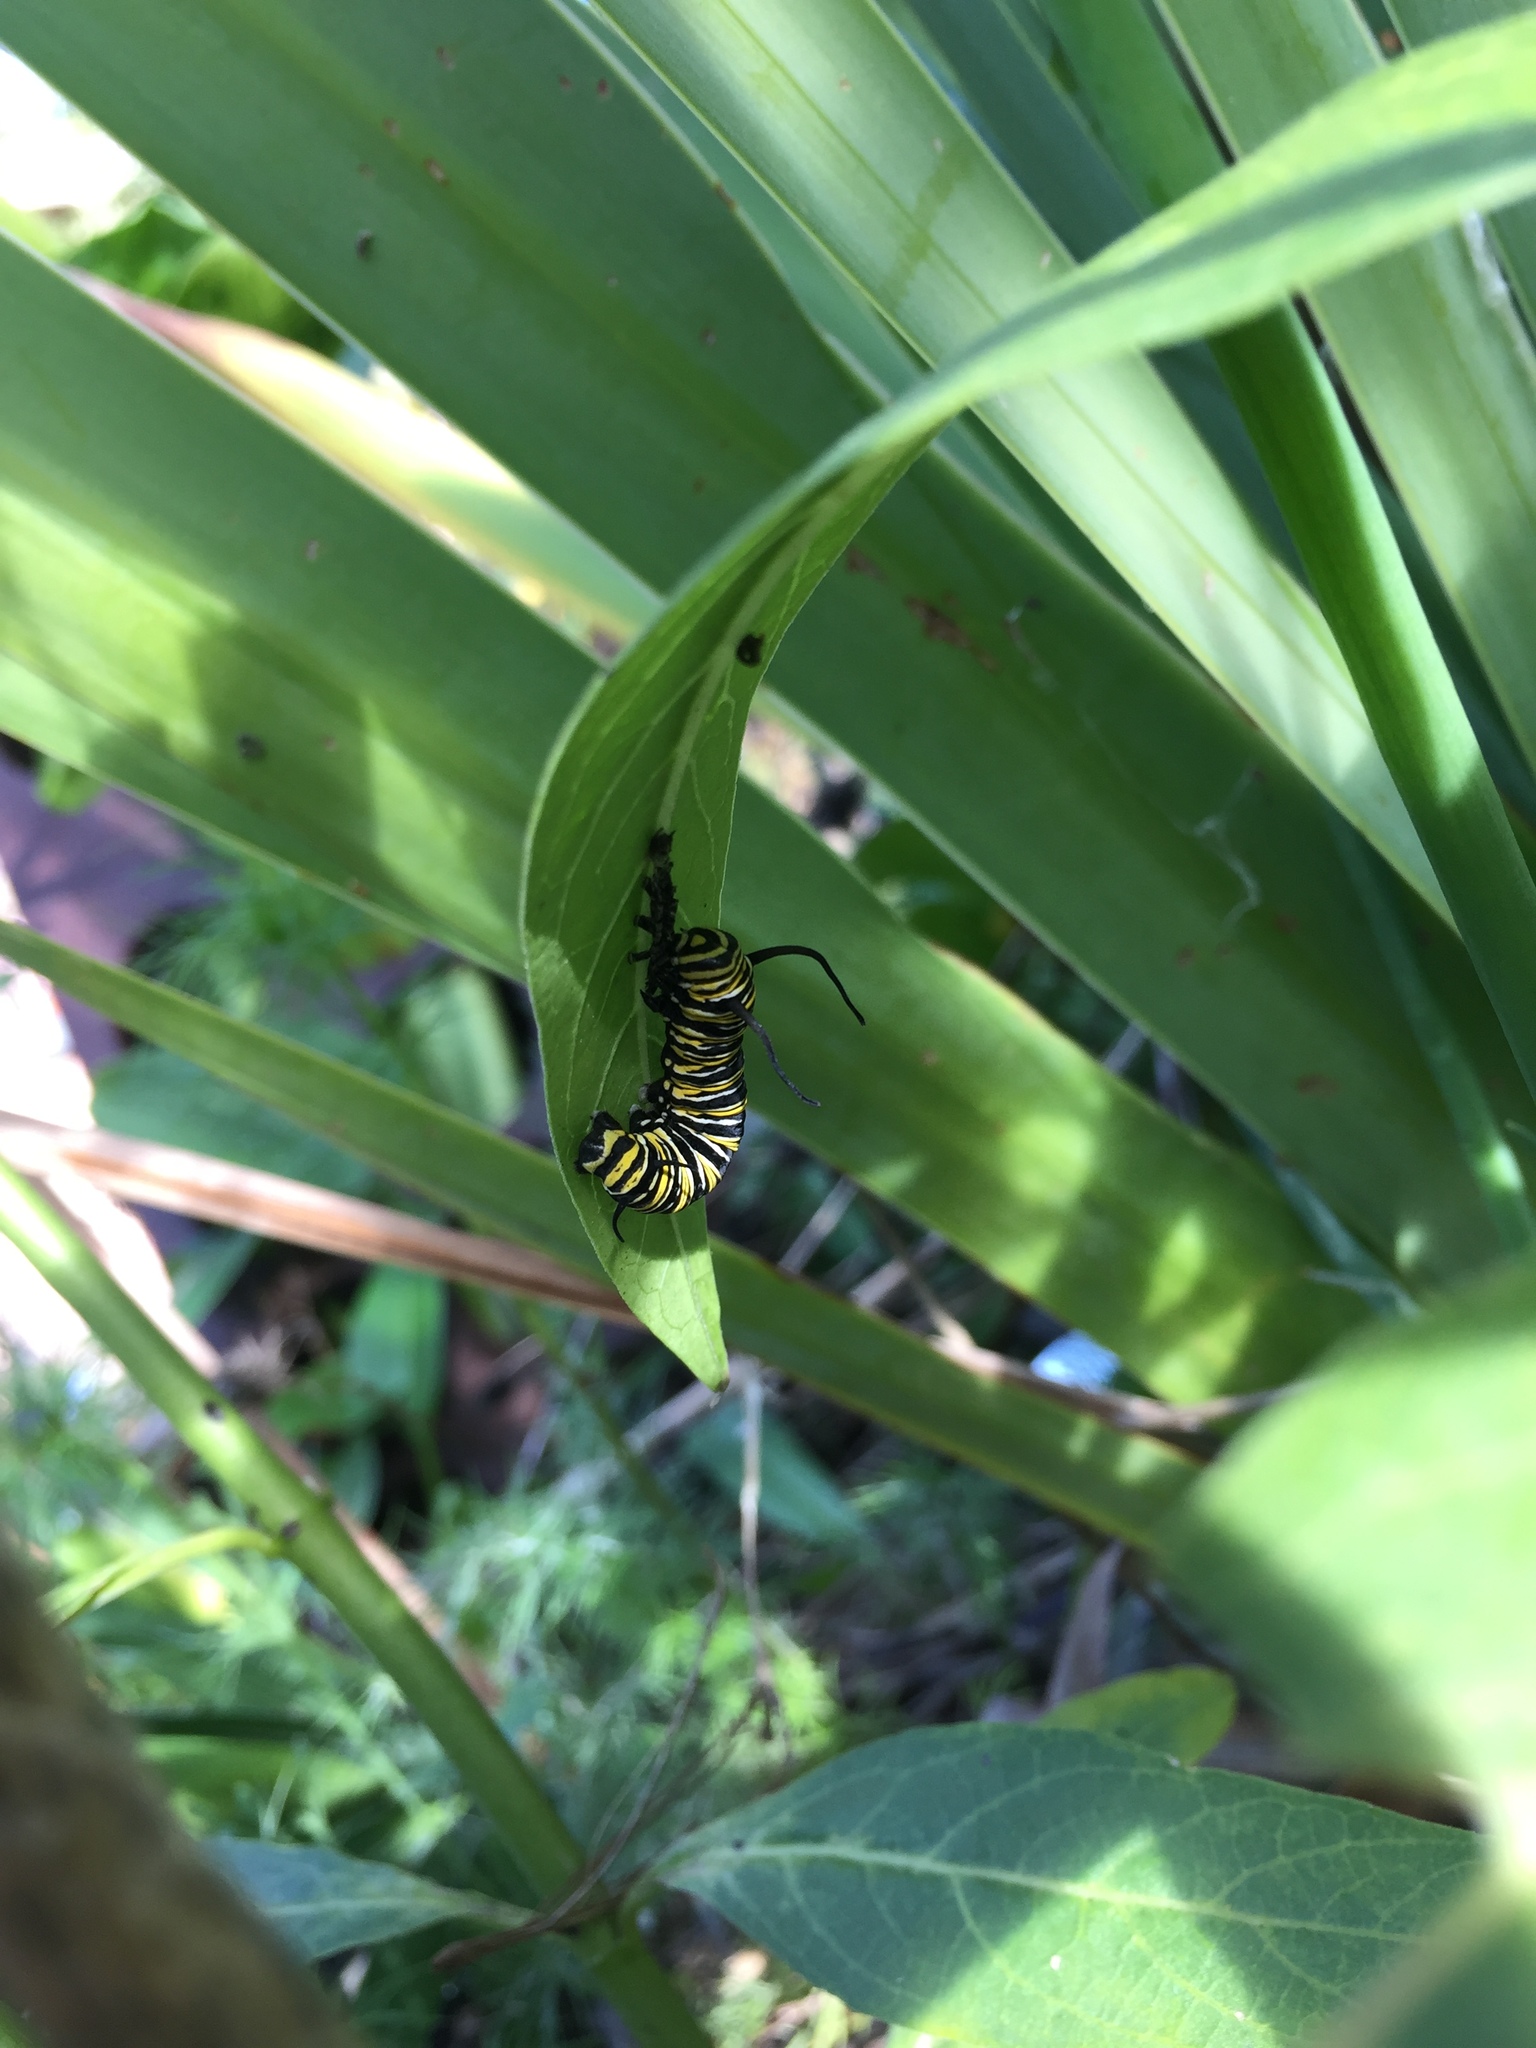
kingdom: Animalia
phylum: Arthropoda
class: Insecta
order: Lepidoptera
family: Nymphalidae
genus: Danaus
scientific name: Danaus plexippus
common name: Monarch
